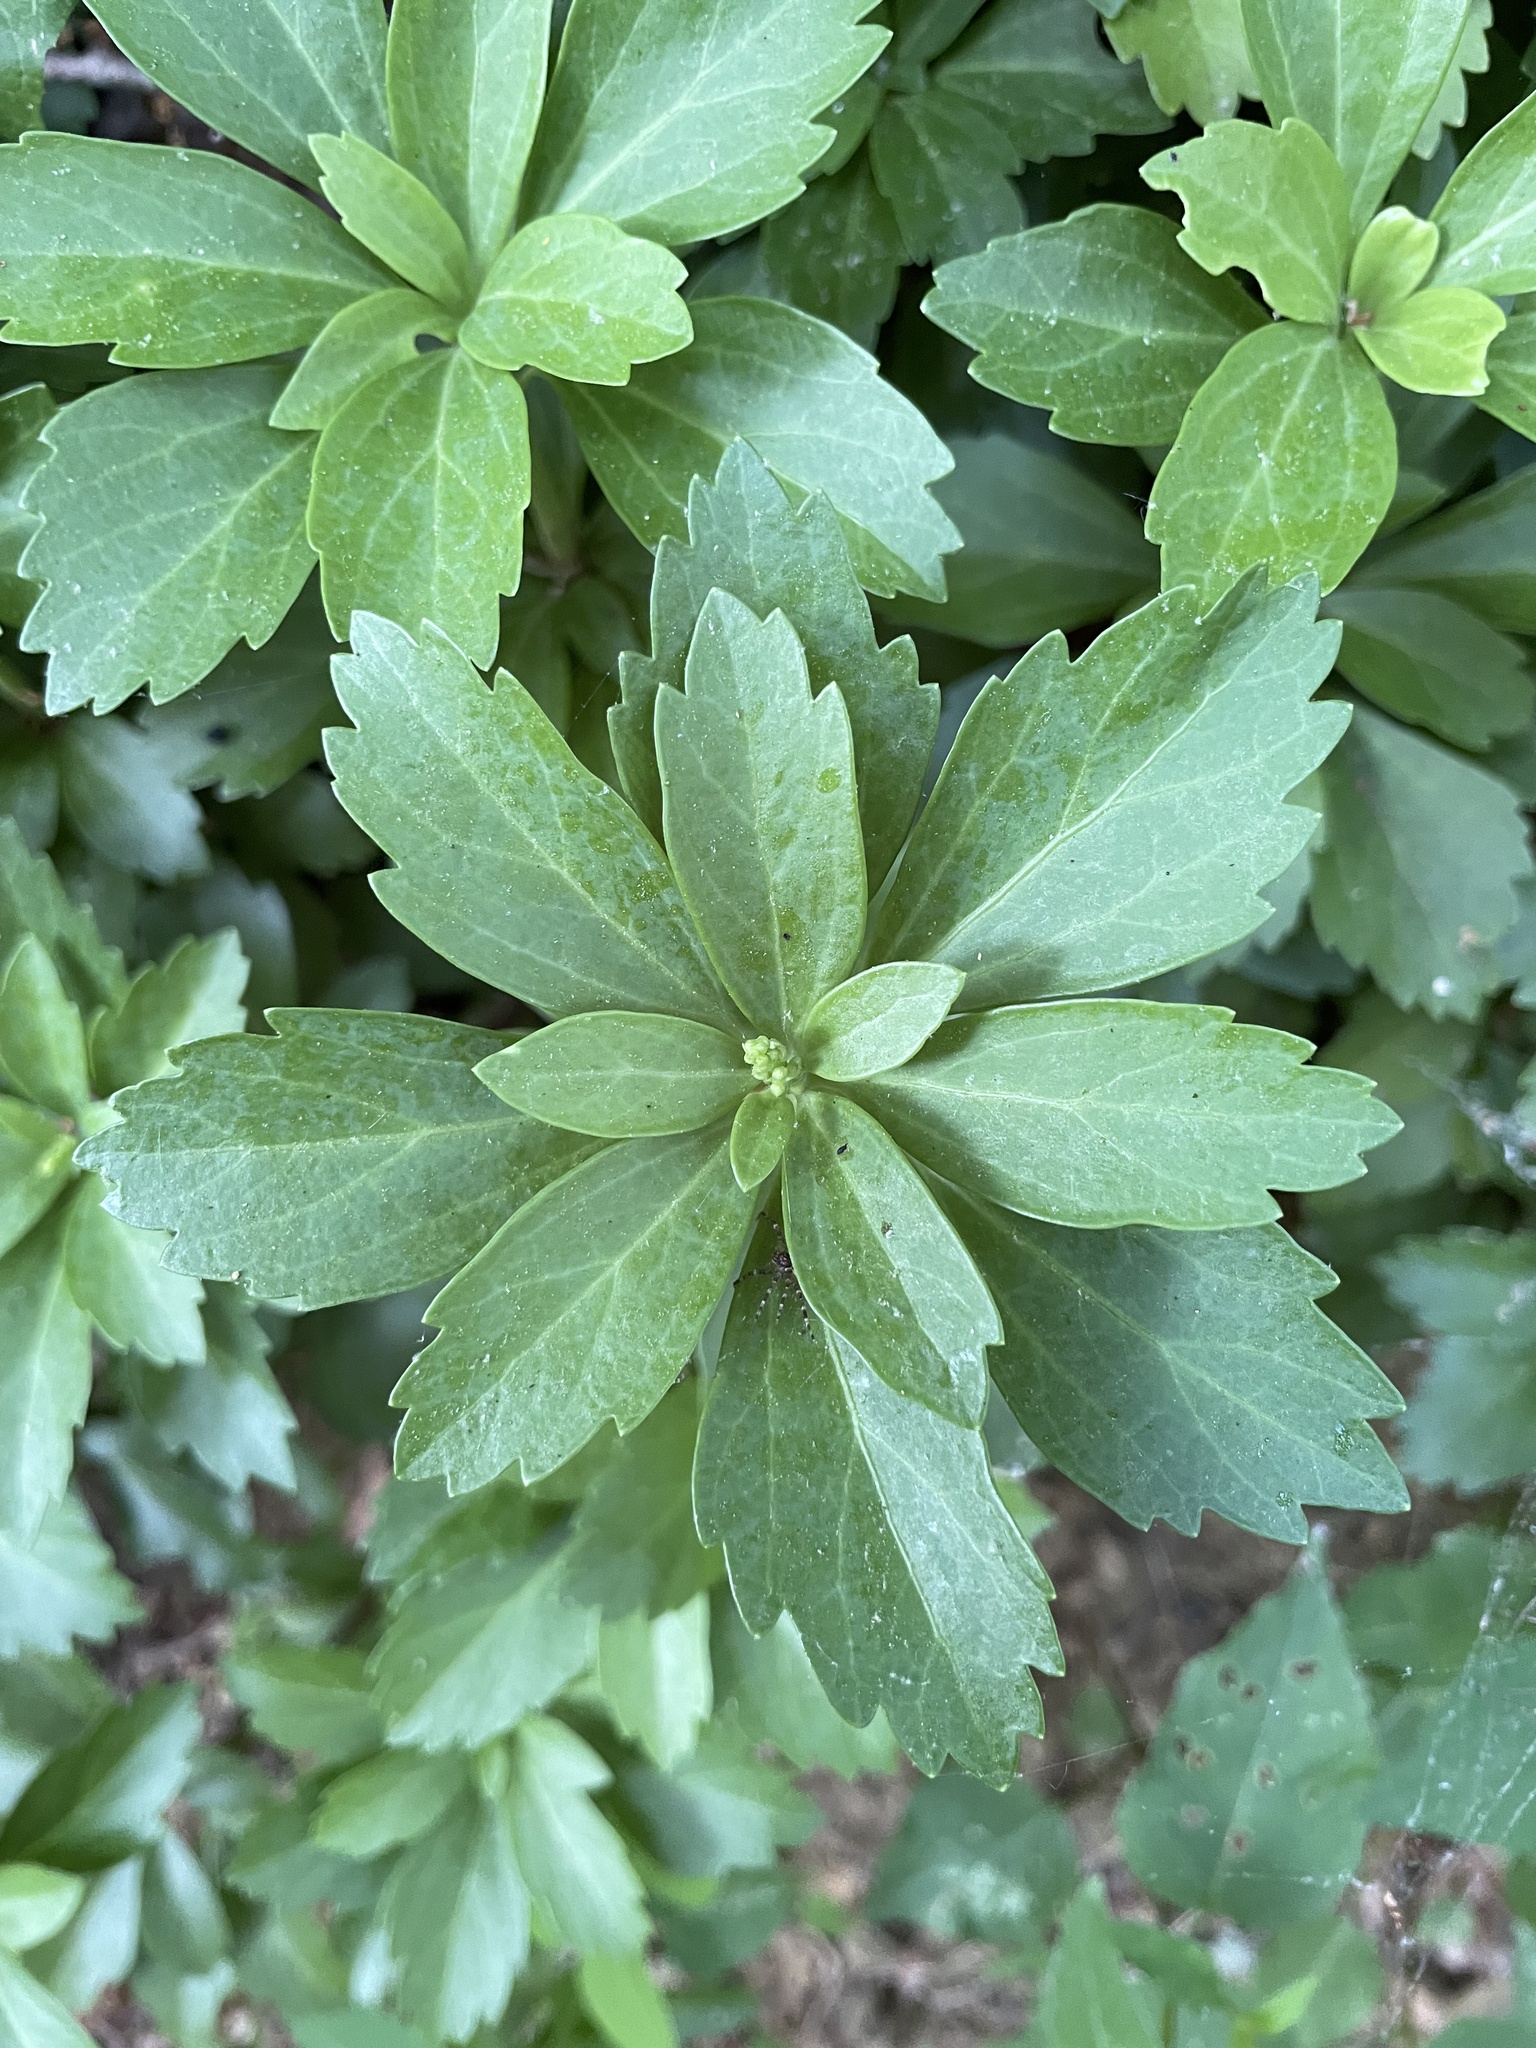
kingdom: Plantae
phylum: Tracheophyta
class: Magnoliopsida
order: Buxales
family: Buxaceae
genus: Pachysandra
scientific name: Pachysandra terminalis
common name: Japanese pachysandra
